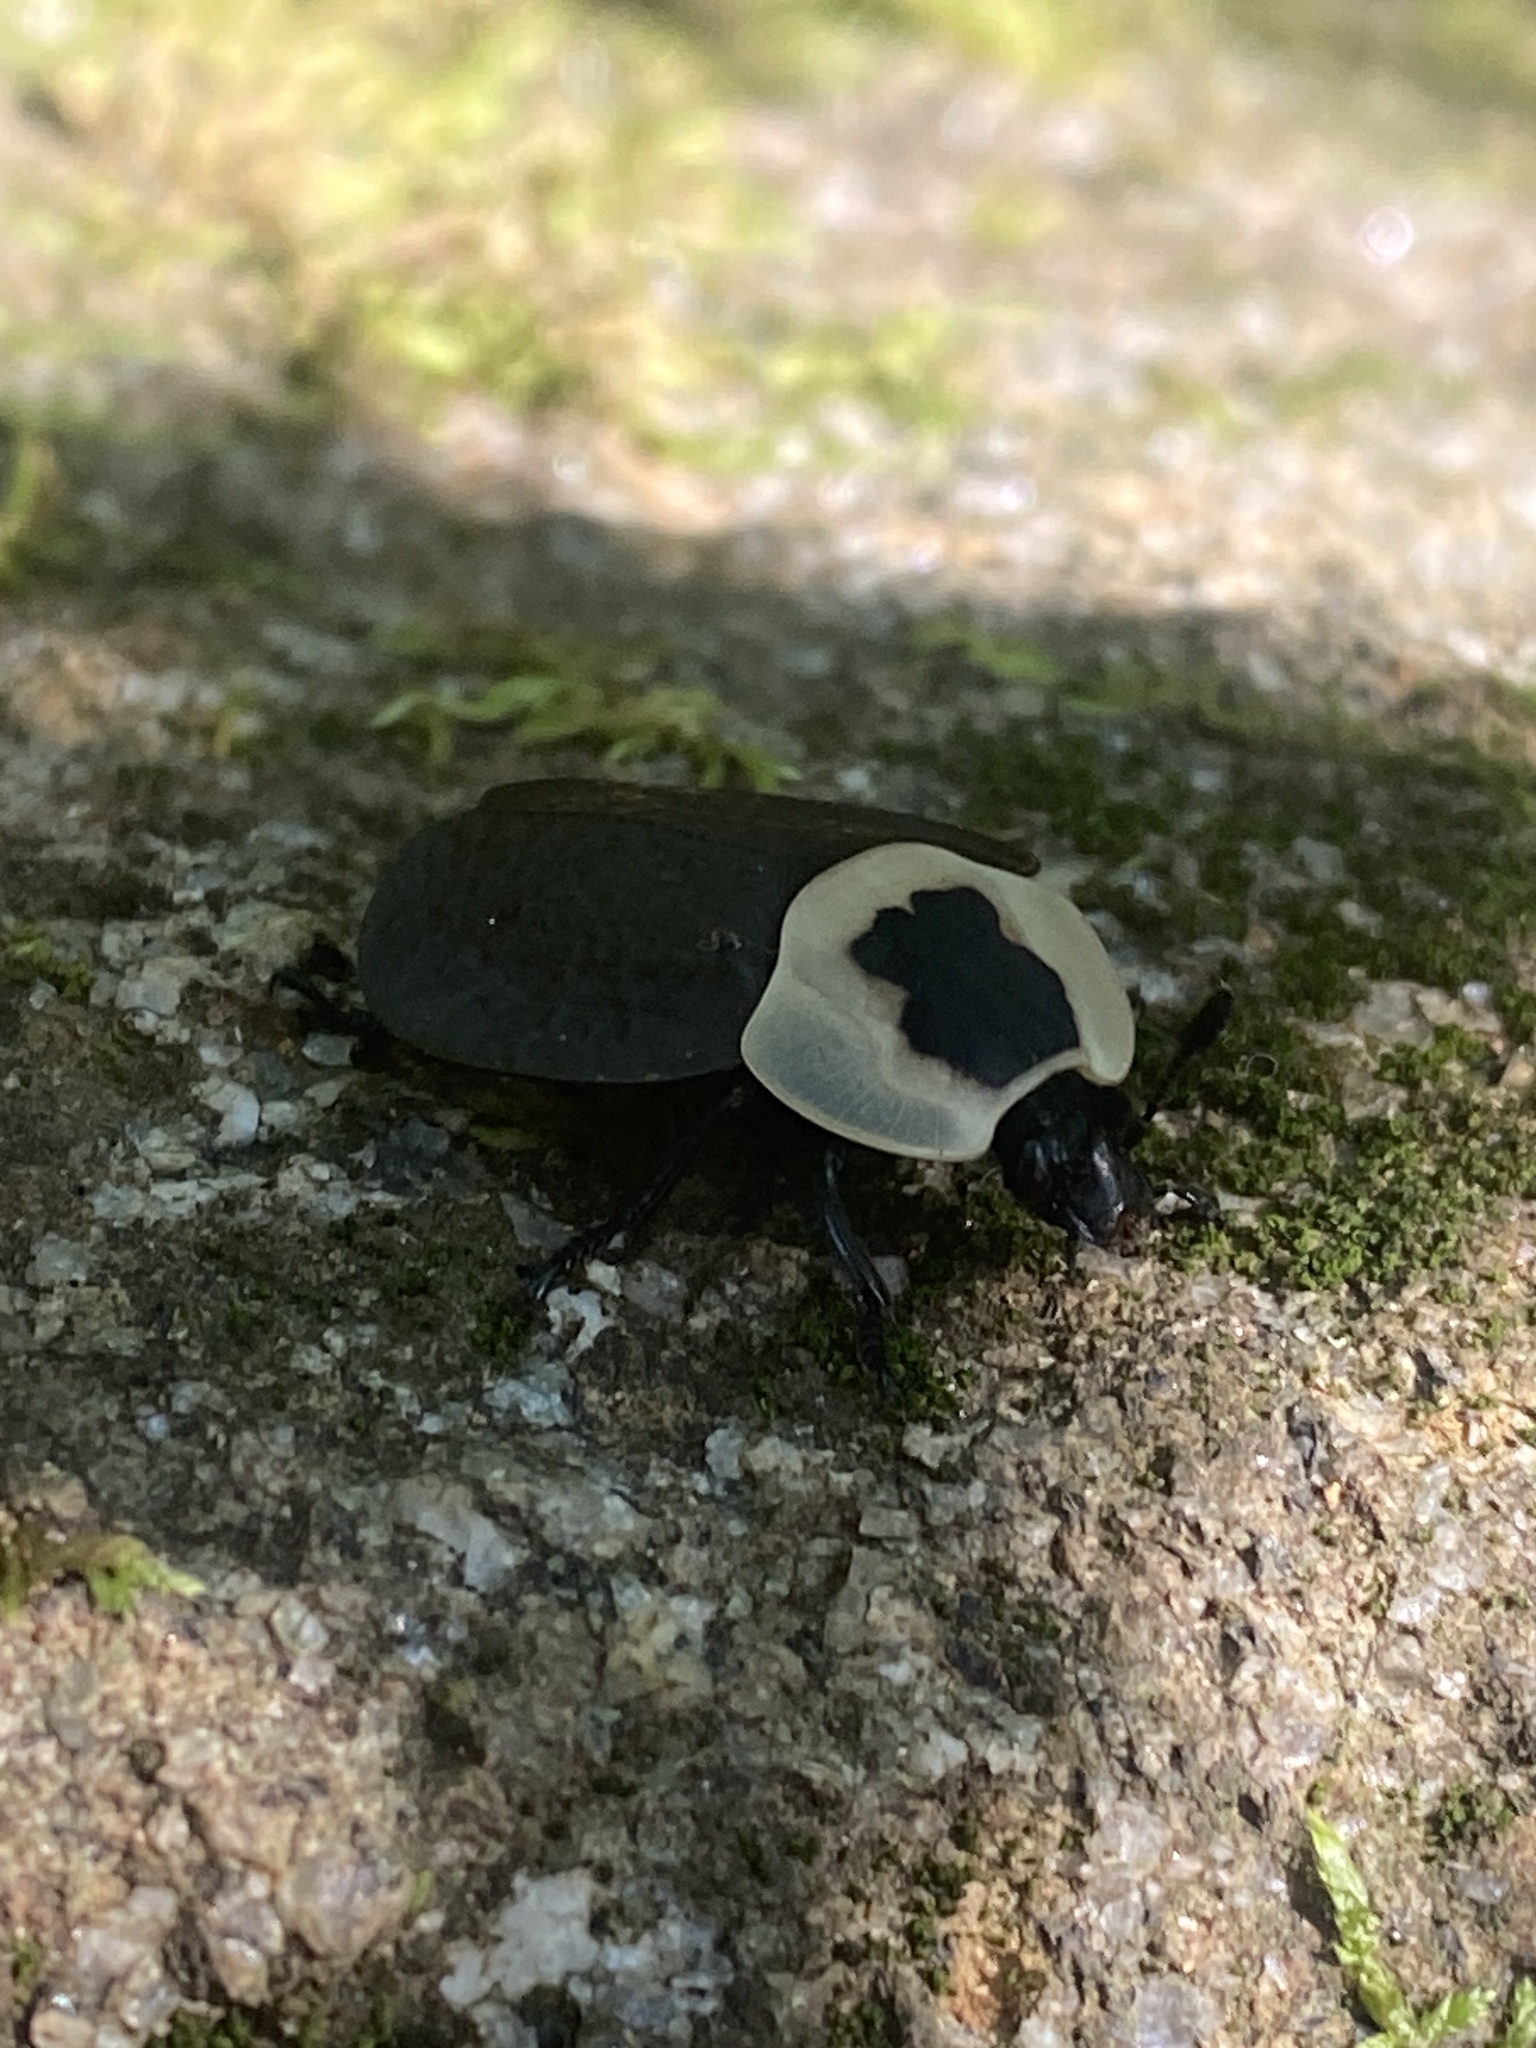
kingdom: Animalia
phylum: Arthropoda
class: Insecta
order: Coleoptera
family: Staphylinidae
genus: Necrophila
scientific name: Necrophila americana
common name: American carrion beetle
